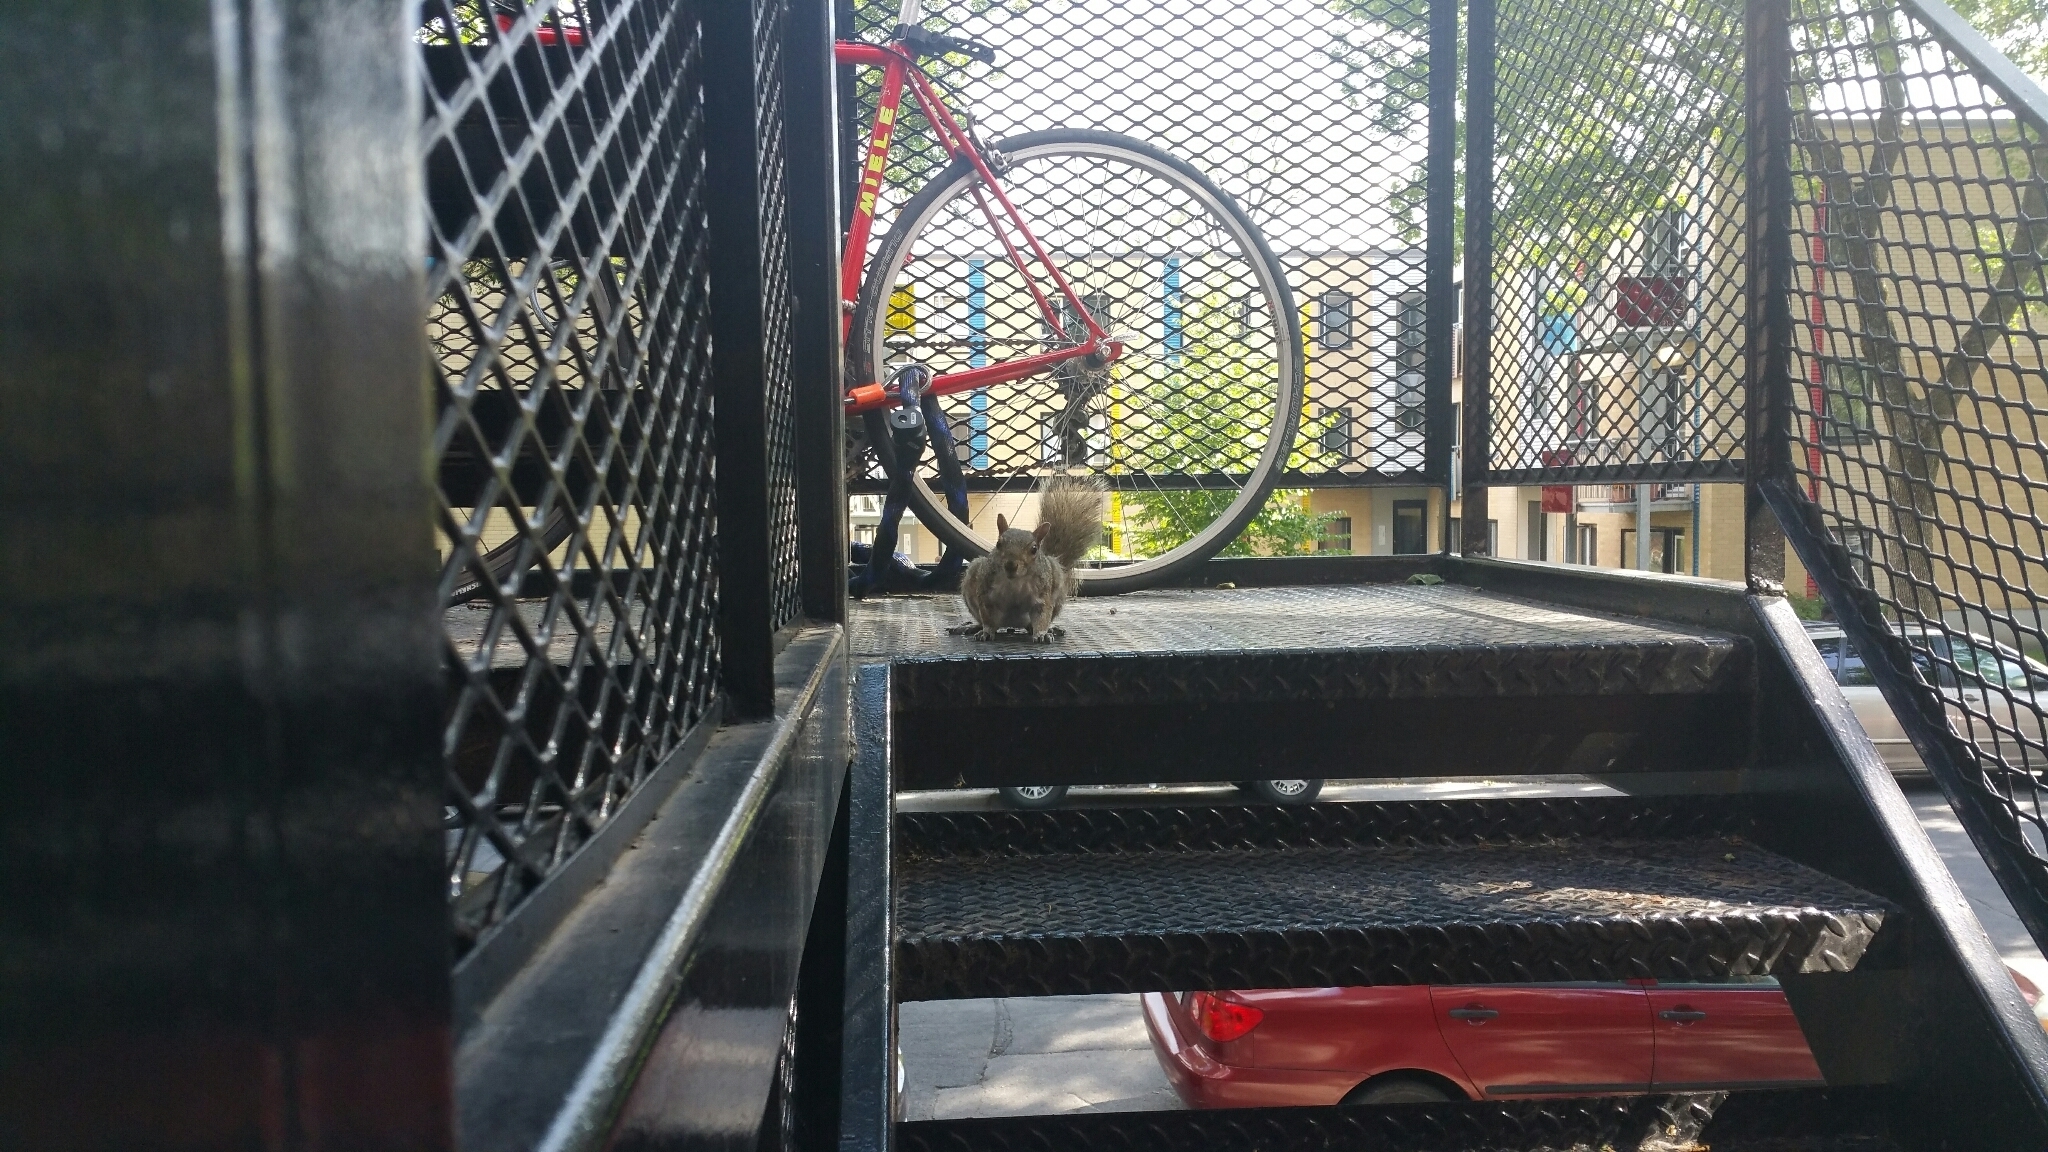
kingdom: Animalia
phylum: Chordata
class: Mammalia
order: Rodentia
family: Sciuridae
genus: Sciurus
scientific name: Sciurus carolinensis
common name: Eastern gray squirrel
